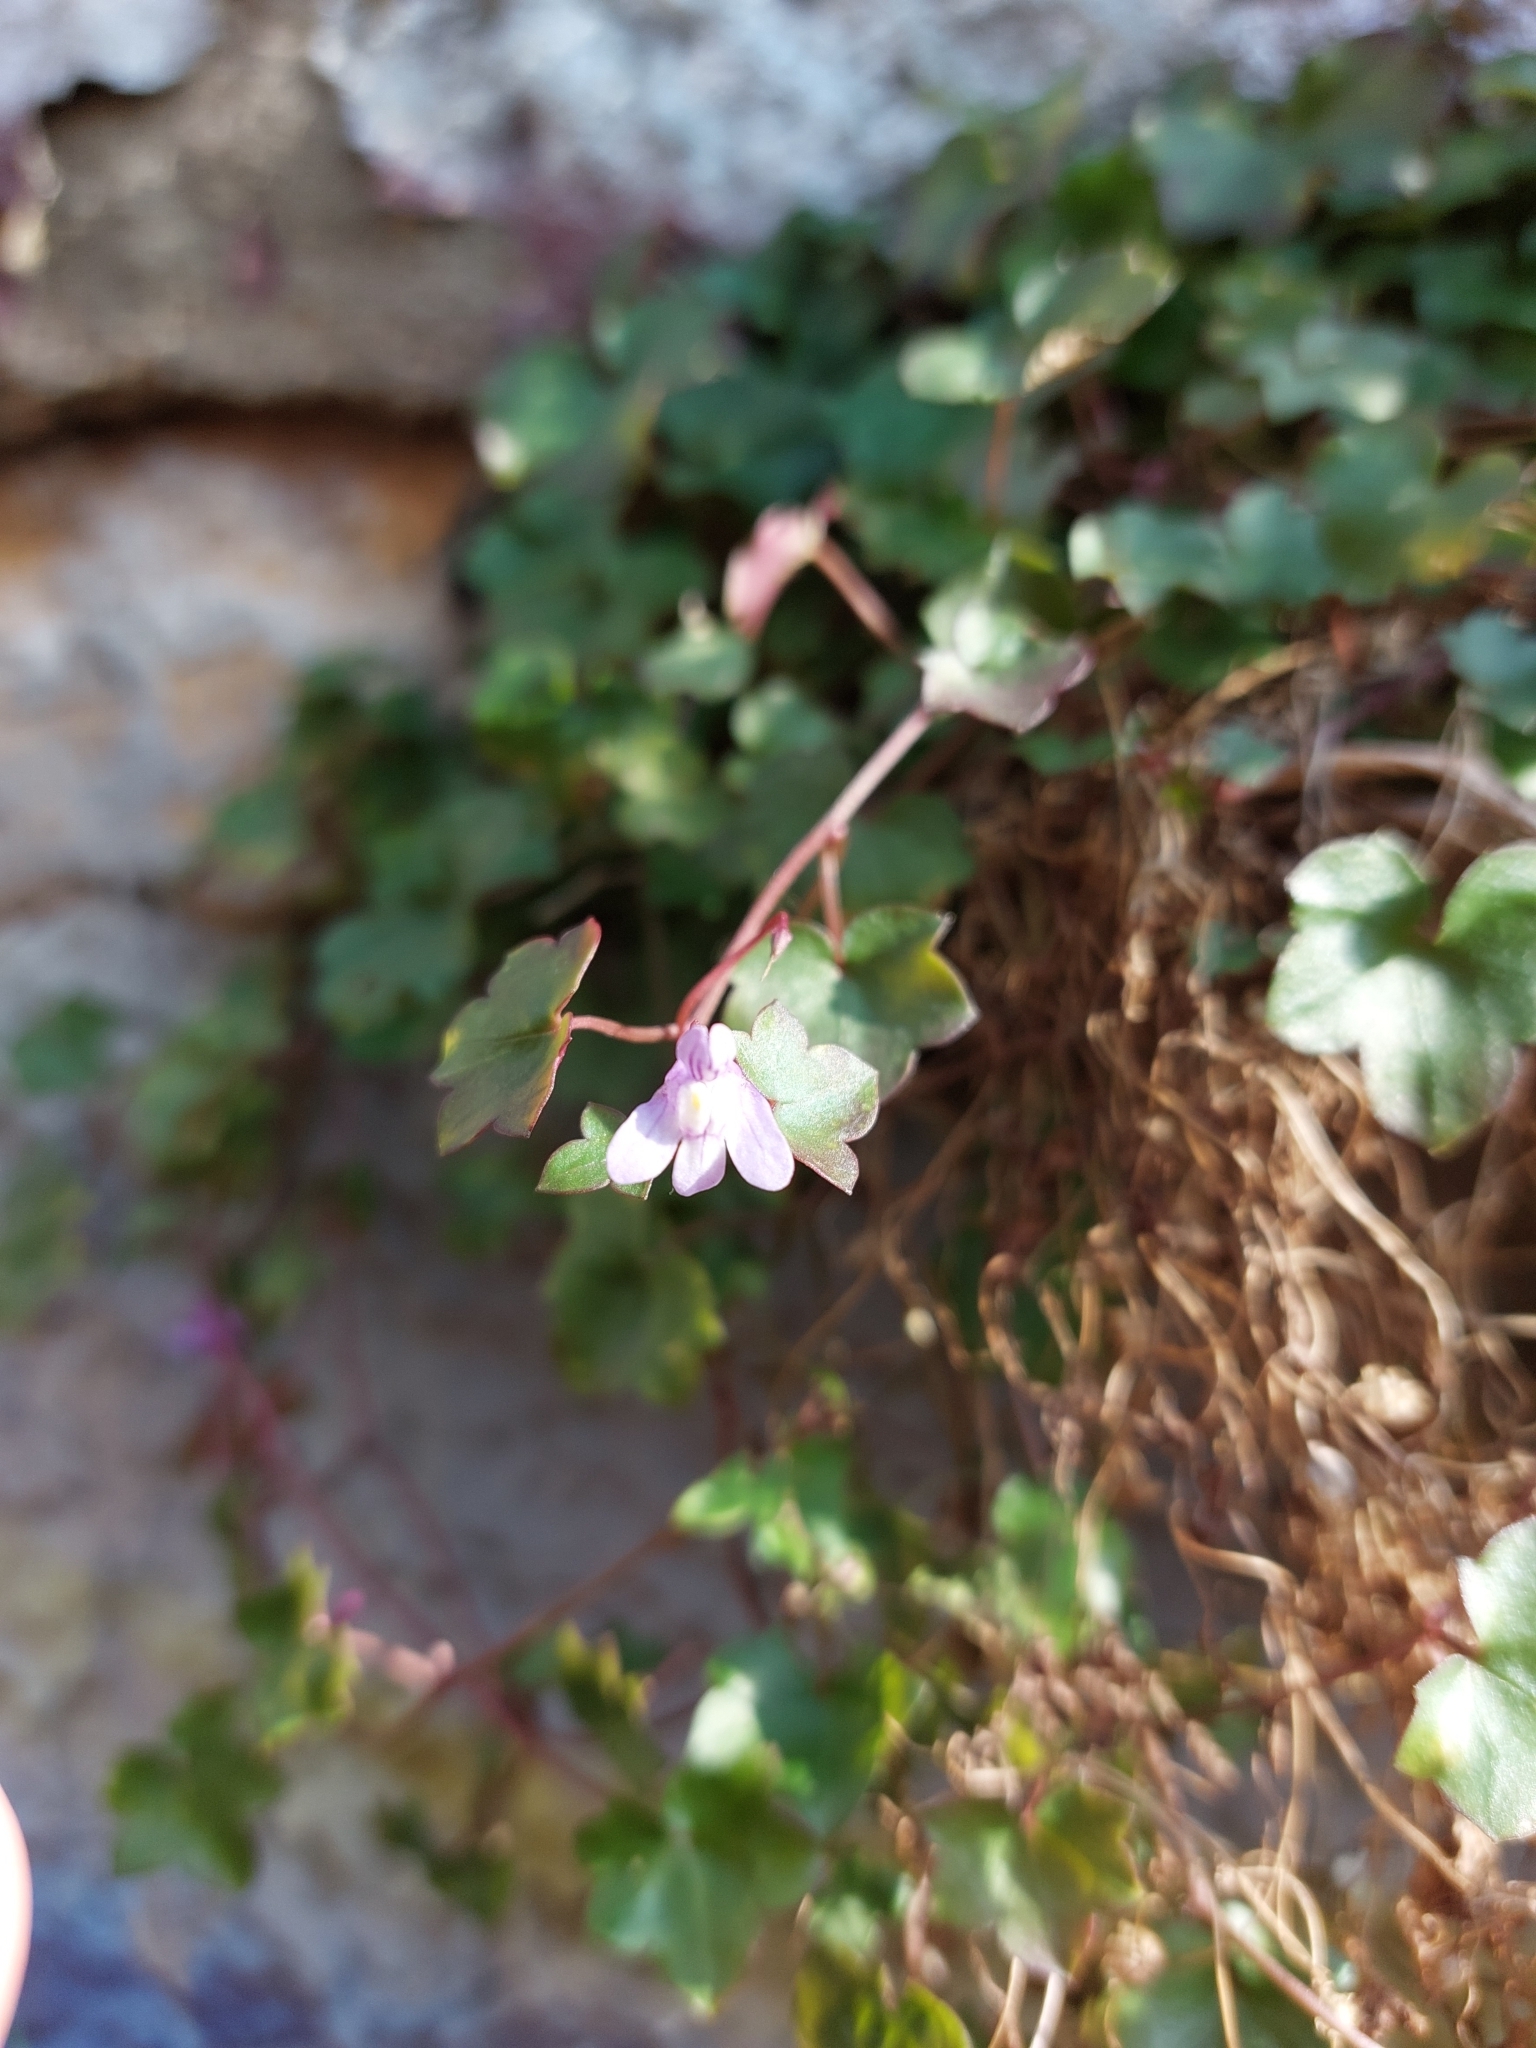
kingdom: Plantae
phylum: Tracheophyta
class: Magnoliopsida
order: Lamiales
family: Plantaginaceae
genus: Cymbalaria
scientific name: Cymbalaria muralis
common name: Ivy-leaved toadflax
